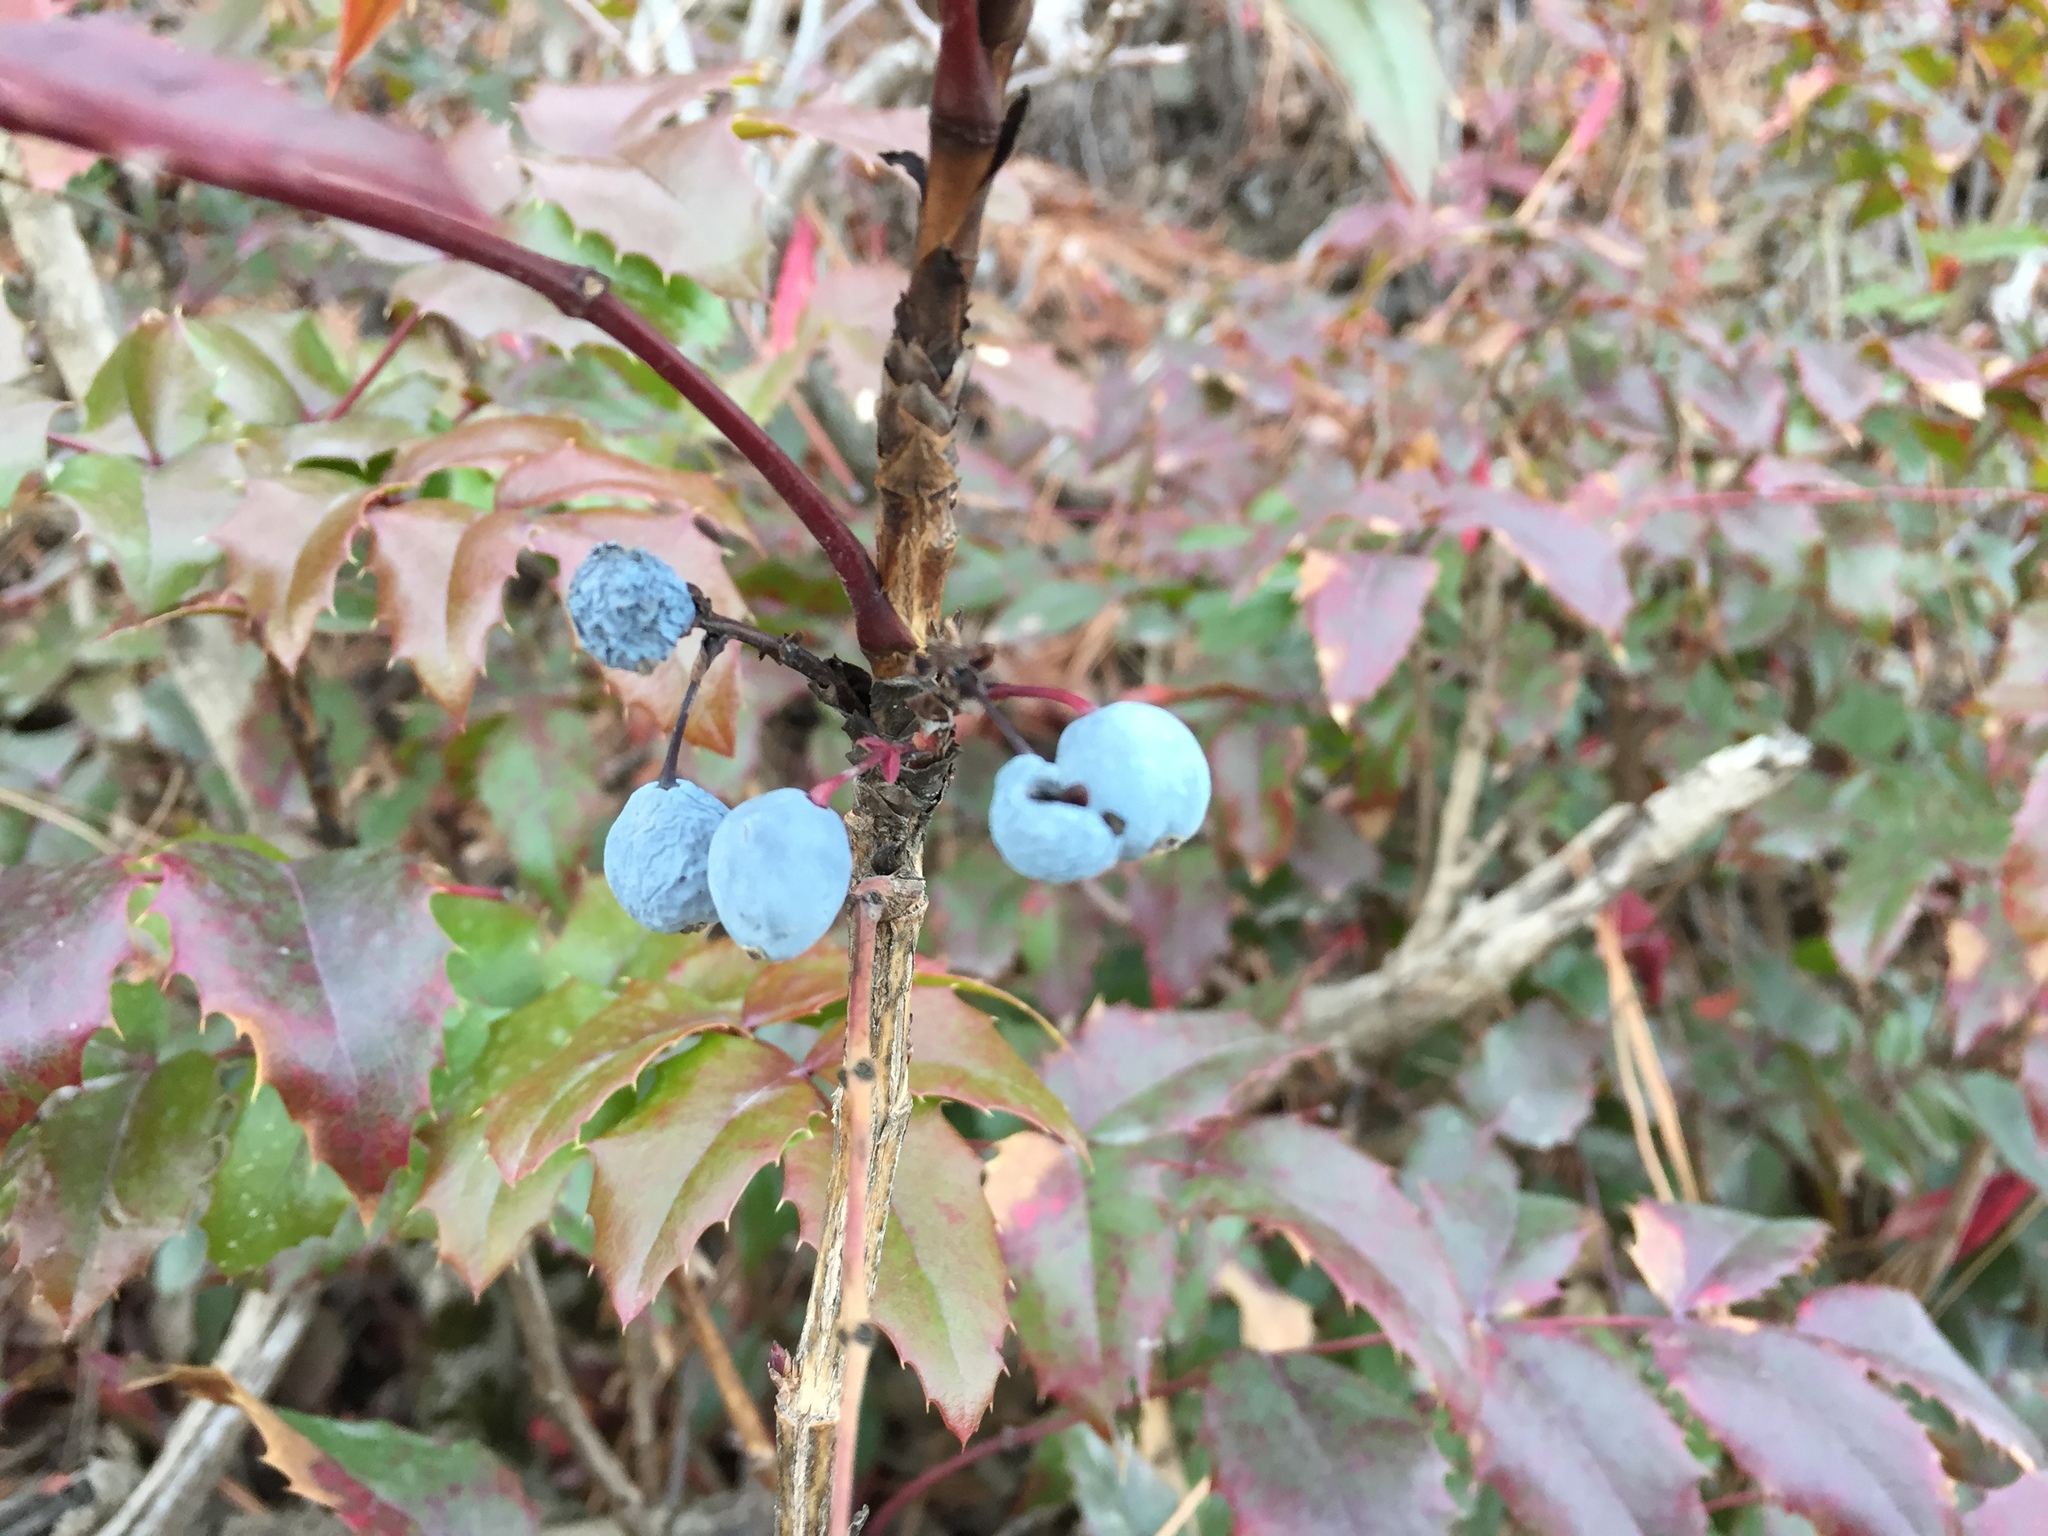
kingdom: Plantae
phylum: Tracheophyta
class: Magnoliopsida
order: Ranunculales
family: Berberidaceae
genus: Mahonia
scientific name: Mahonia aquifolium
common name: Oregon-grape
